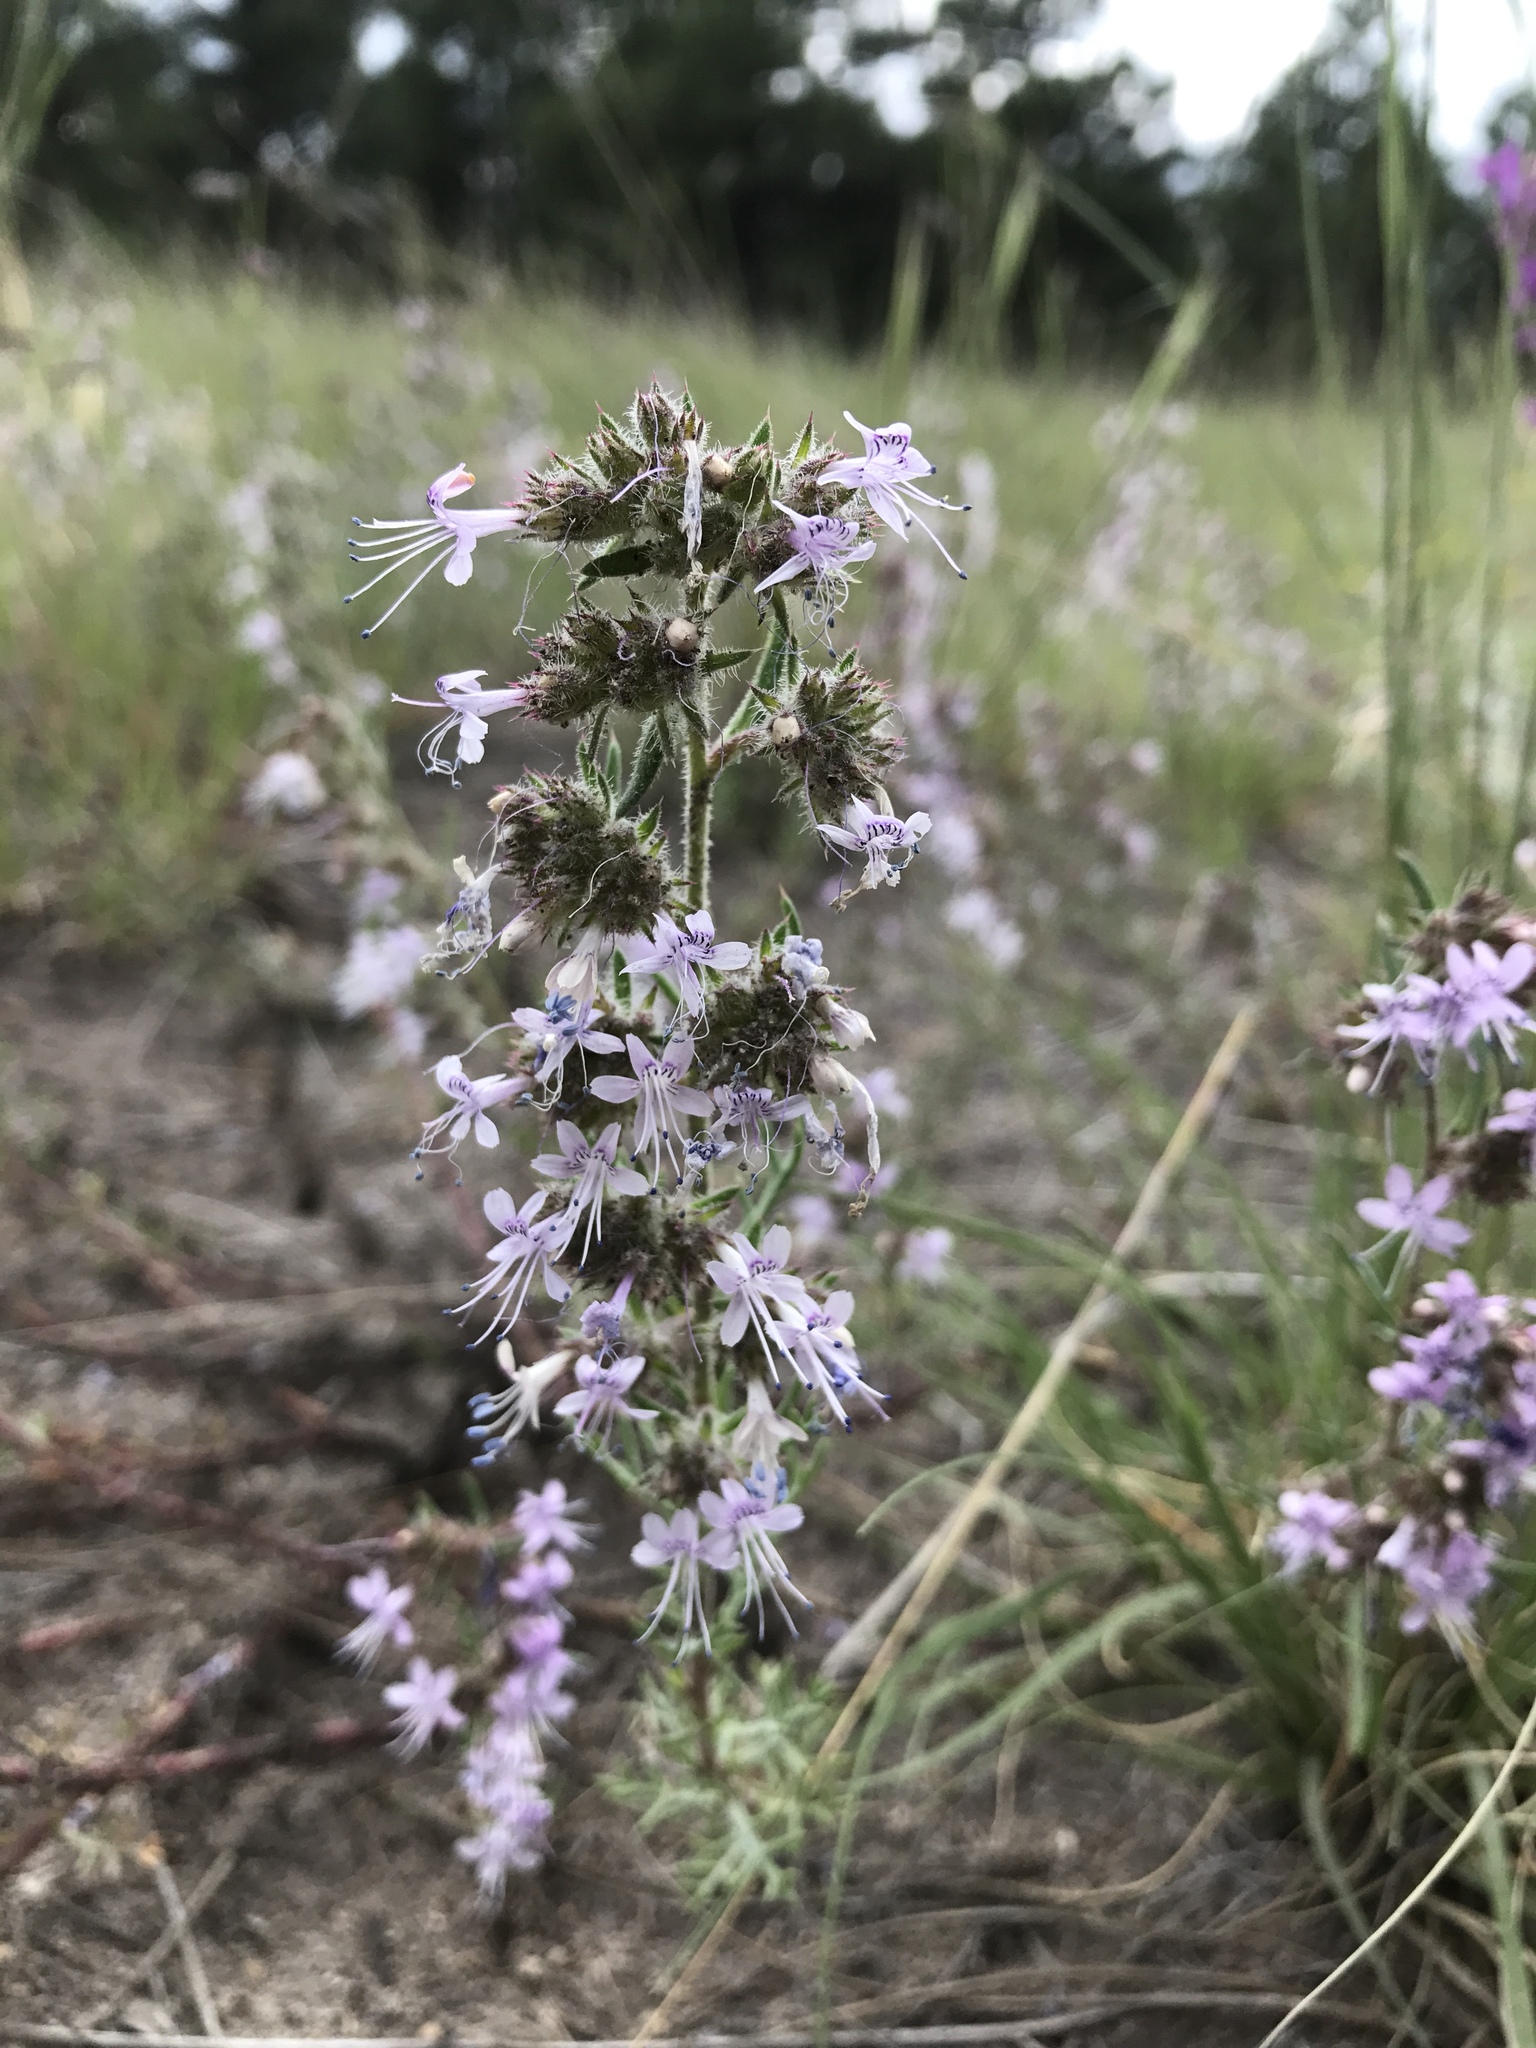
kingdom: Plantae
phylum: Tracheophyta
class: Magnoliopsida
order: Ericales
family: Polemoniaceae
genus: Ipomopsis
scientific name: Ipomopsis multiflora
